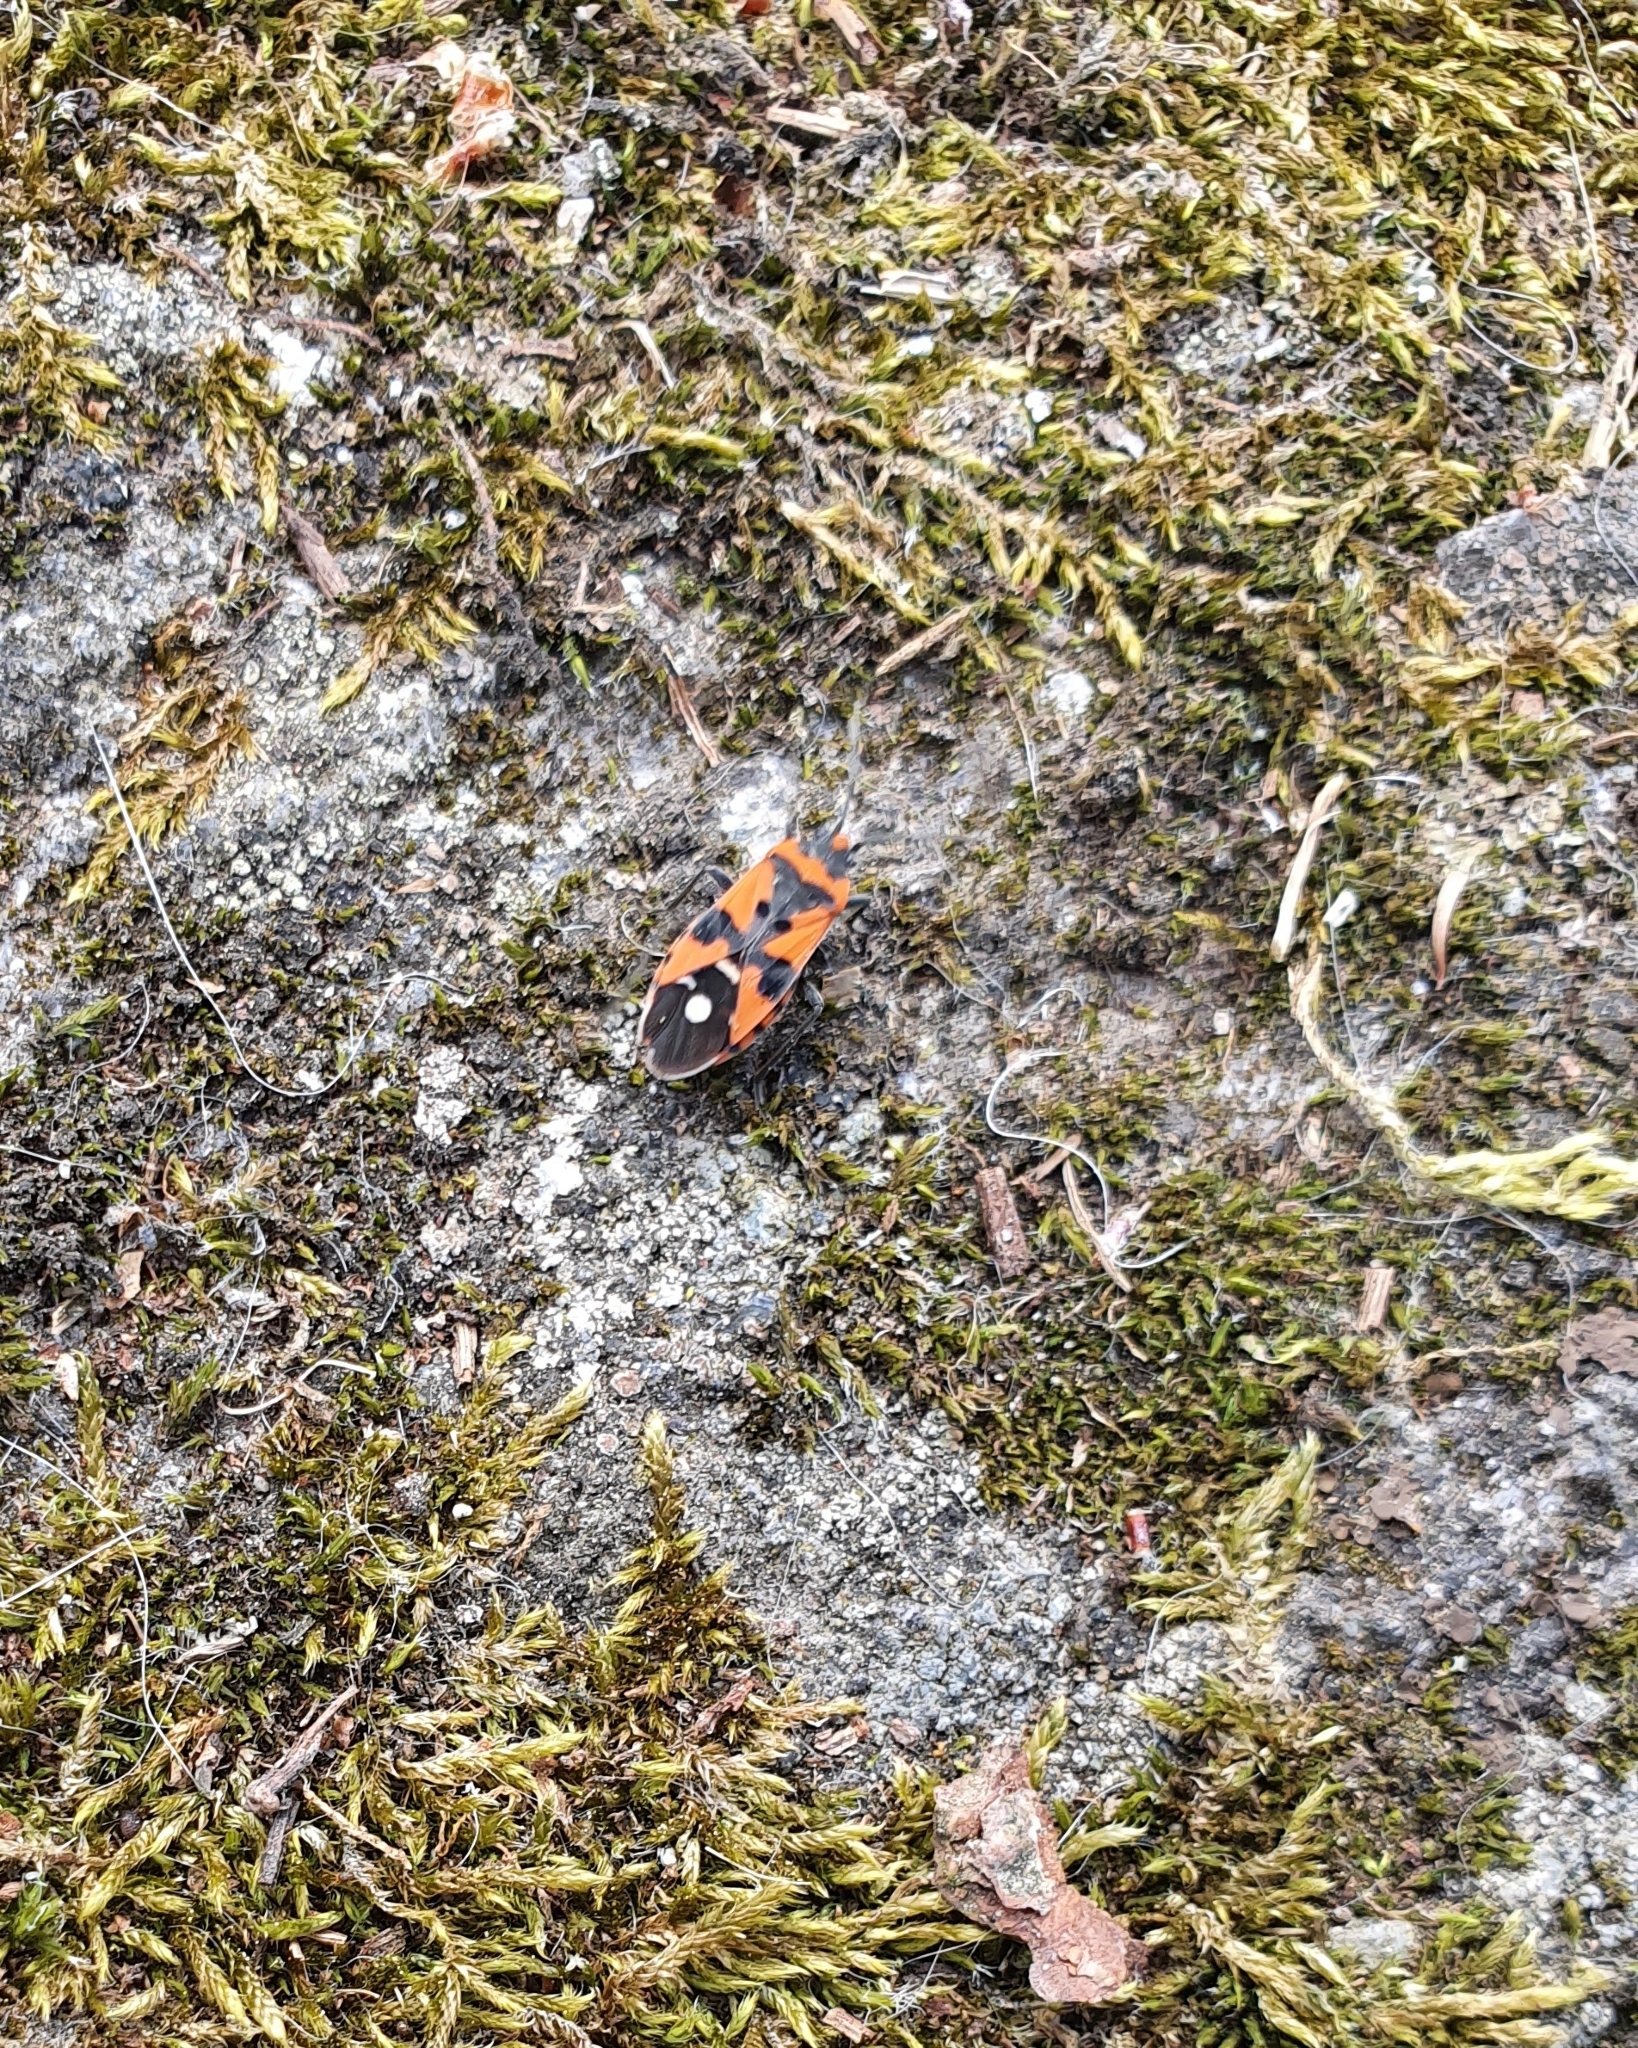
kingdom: Animalia
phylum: Arthropoda
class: Insecta
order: Hemiptera
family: Lygaeidae
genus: Lygaeus
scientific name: Lygaeus equestris
